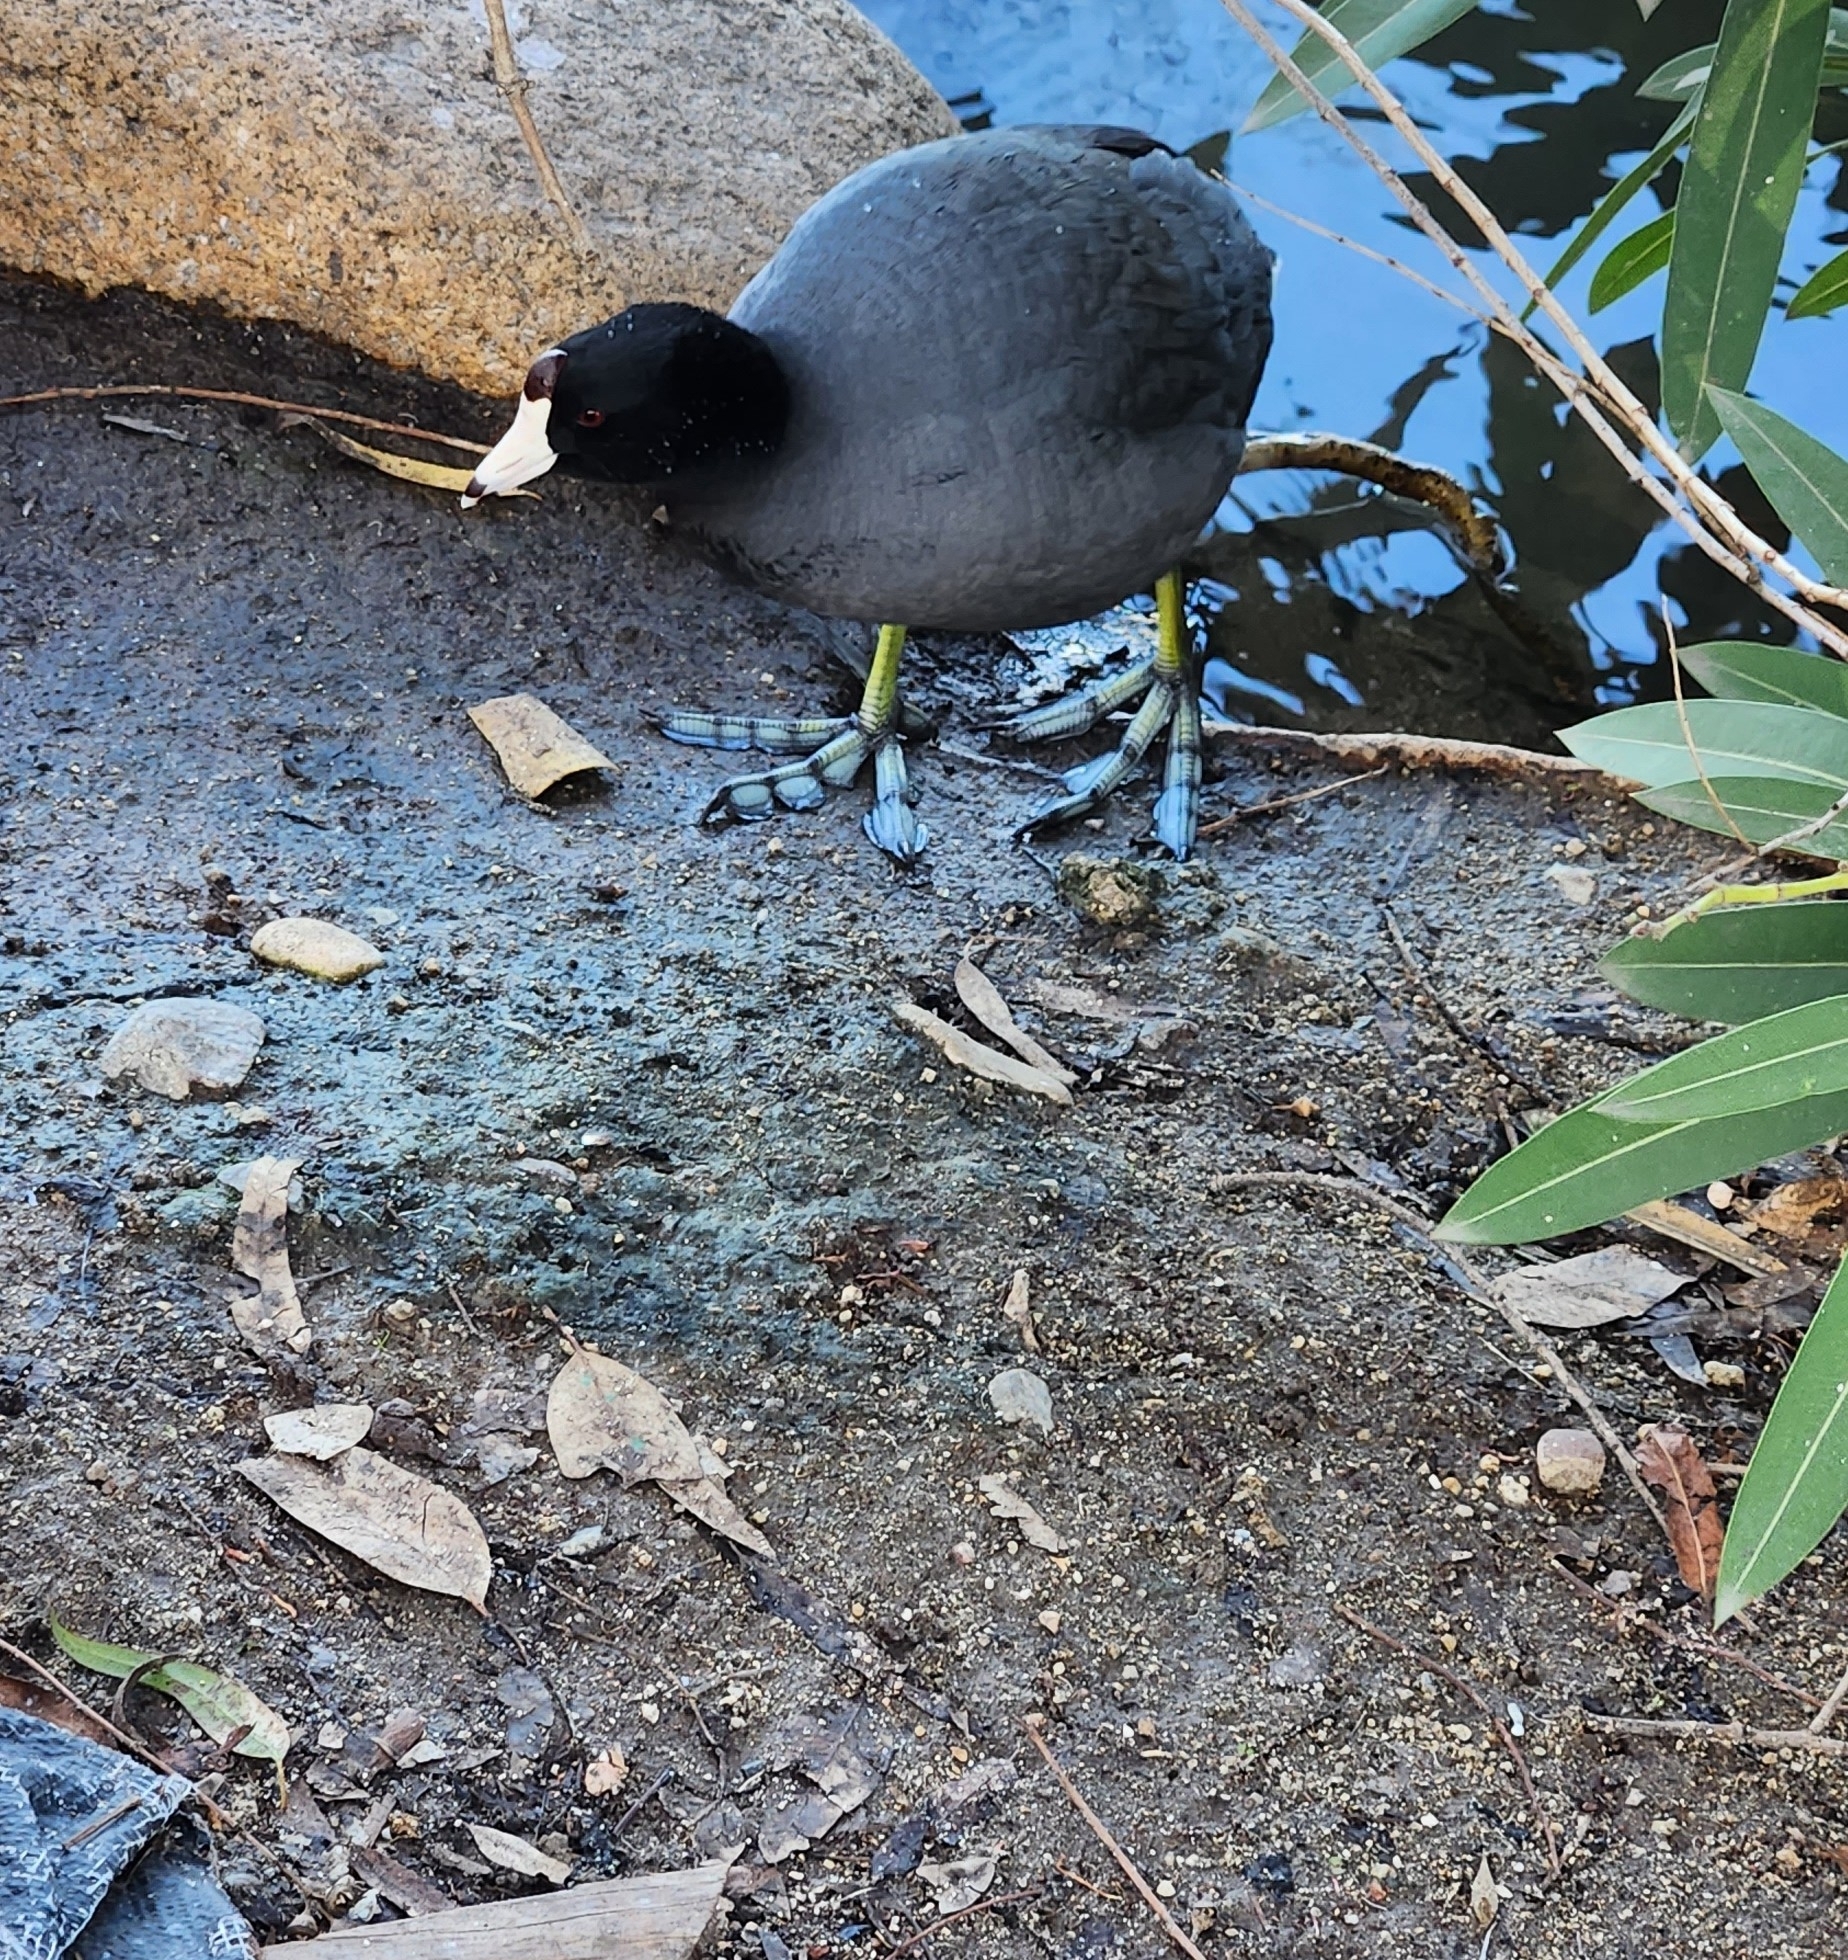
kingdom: Animalia
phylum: Chordata
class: Aves
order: Gruiformes
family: Rallidae
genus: Fulica
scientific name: Fulica americana
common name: American coot
